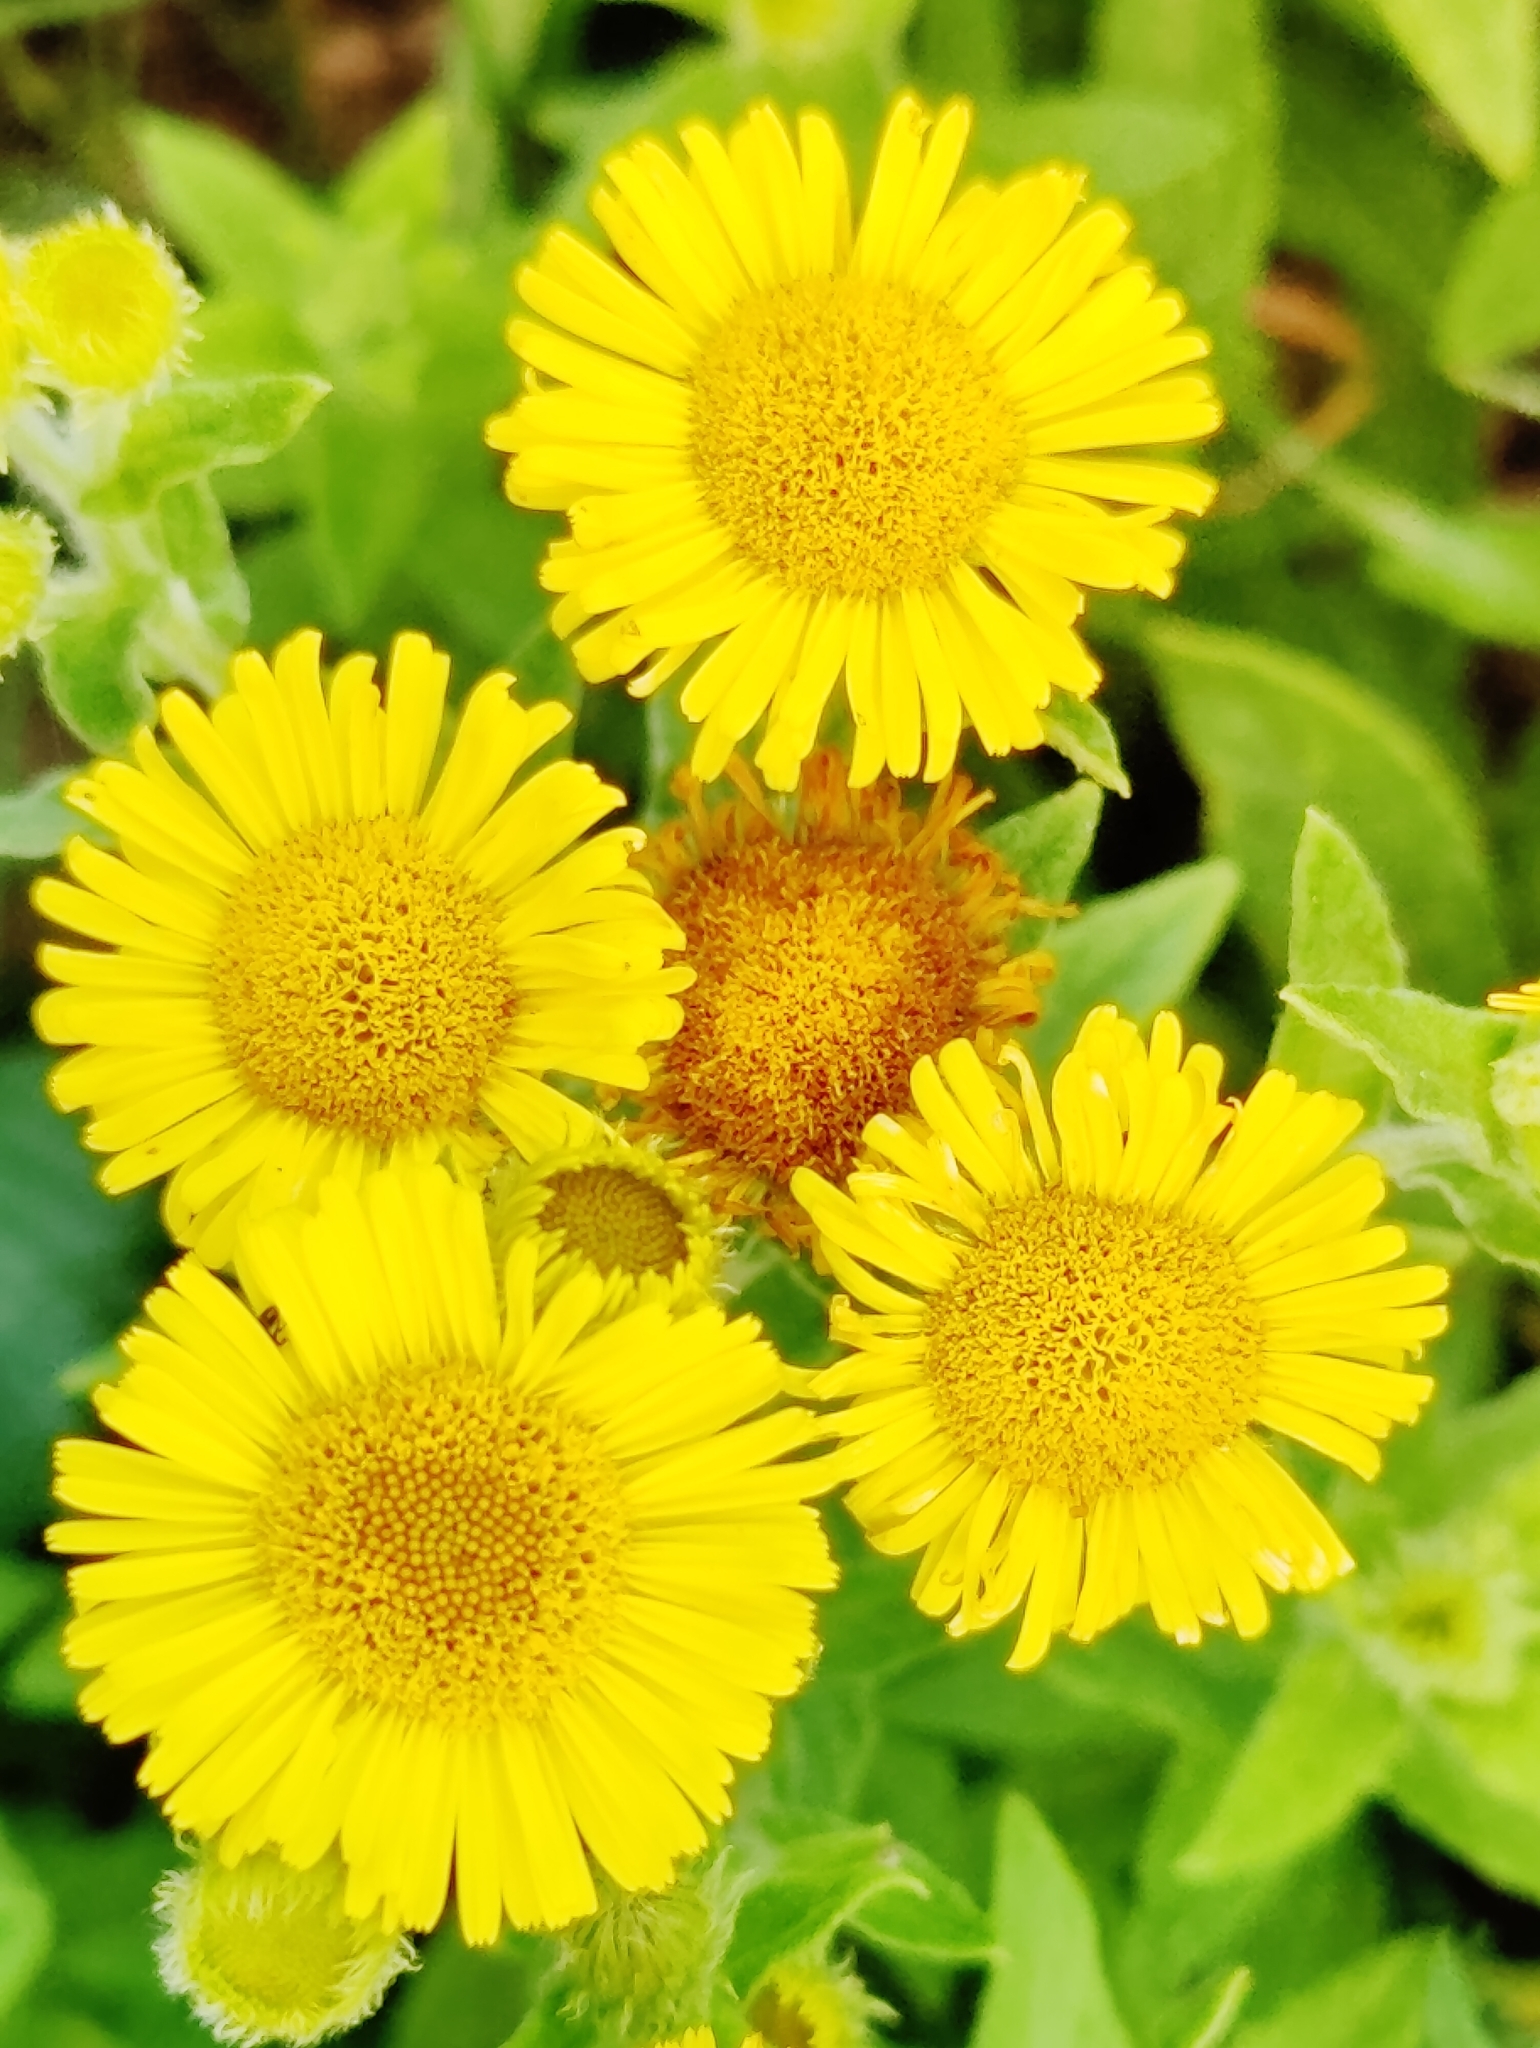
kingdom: Plantae
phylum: Tracheophyta
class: Magnoliopsida
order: Asterales
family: Asteraceae
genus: Pulicaria
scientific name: Pulicaria dysenterica
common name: Common fleabane
